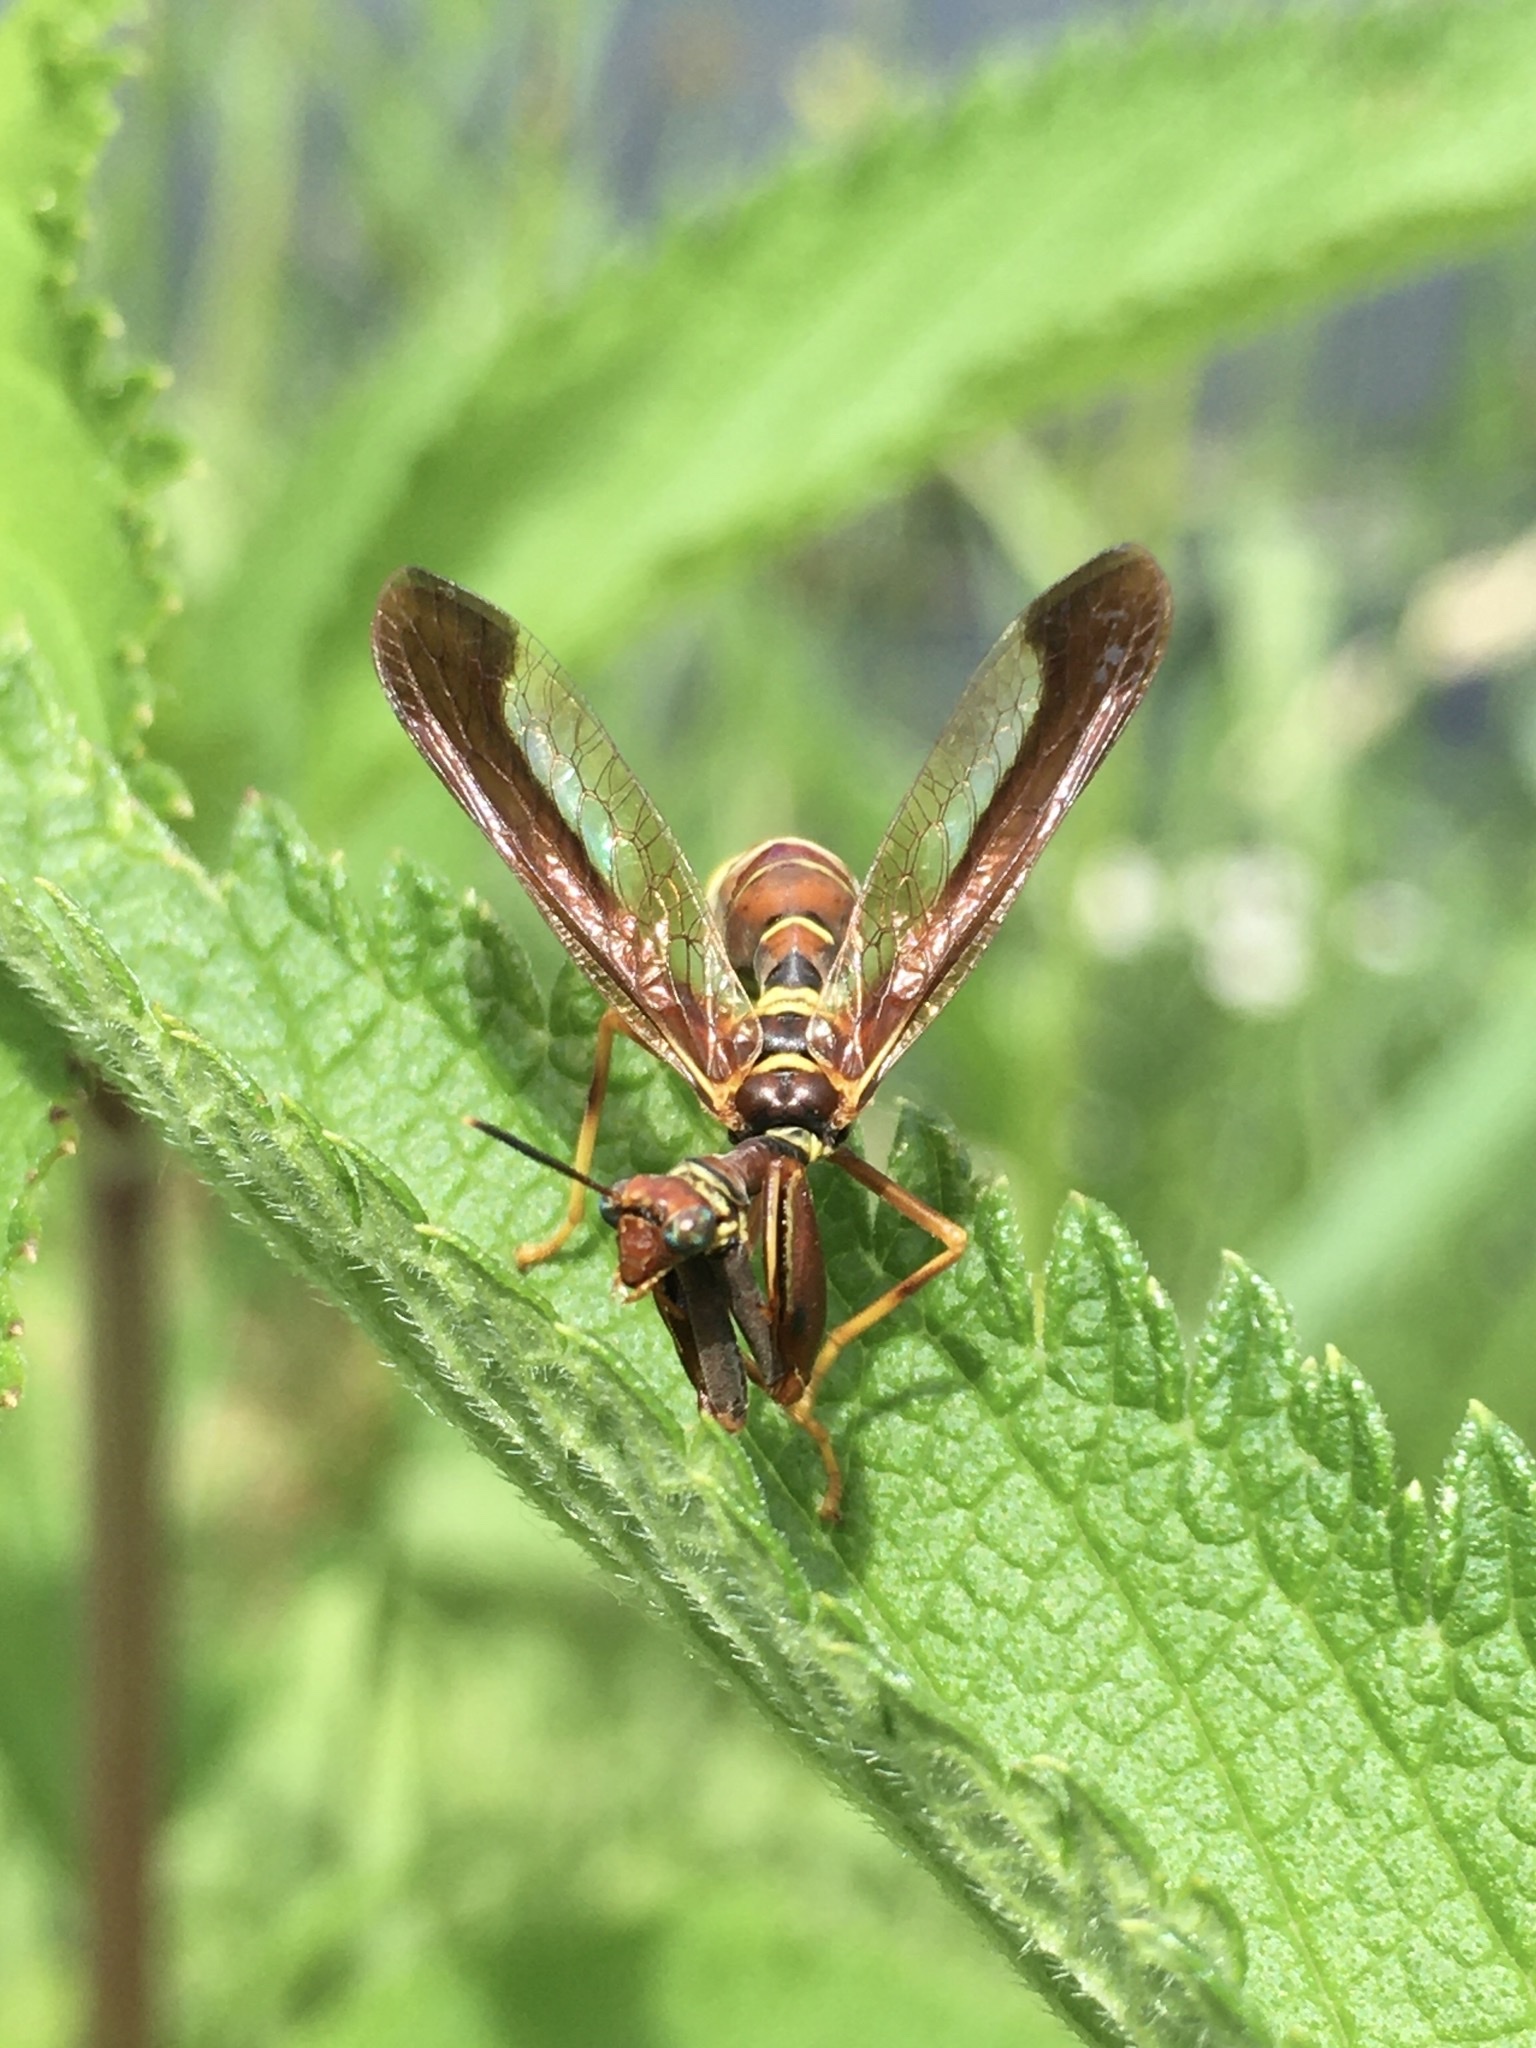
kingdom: Animalia
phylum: Arthropoda
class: Insecta
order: Neuroptera
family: Mantispidae
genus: Climaciella
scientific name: Climaciella brunnea
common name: Brown wasp mantidfly
